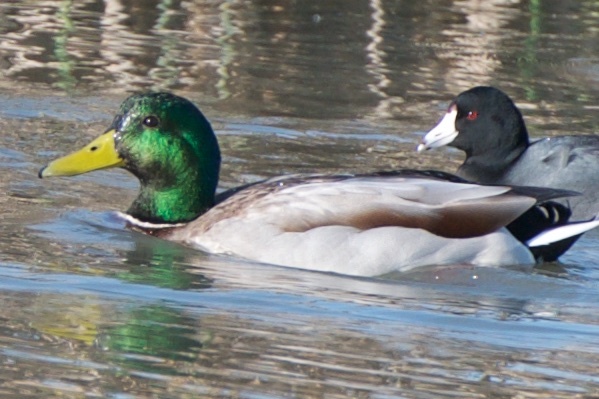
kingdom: Animalia
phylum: Chordata
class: Aves
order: Anseriformes
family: Anatidae
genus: Anas
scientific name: Anas platyrhynchos
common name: Mallard
